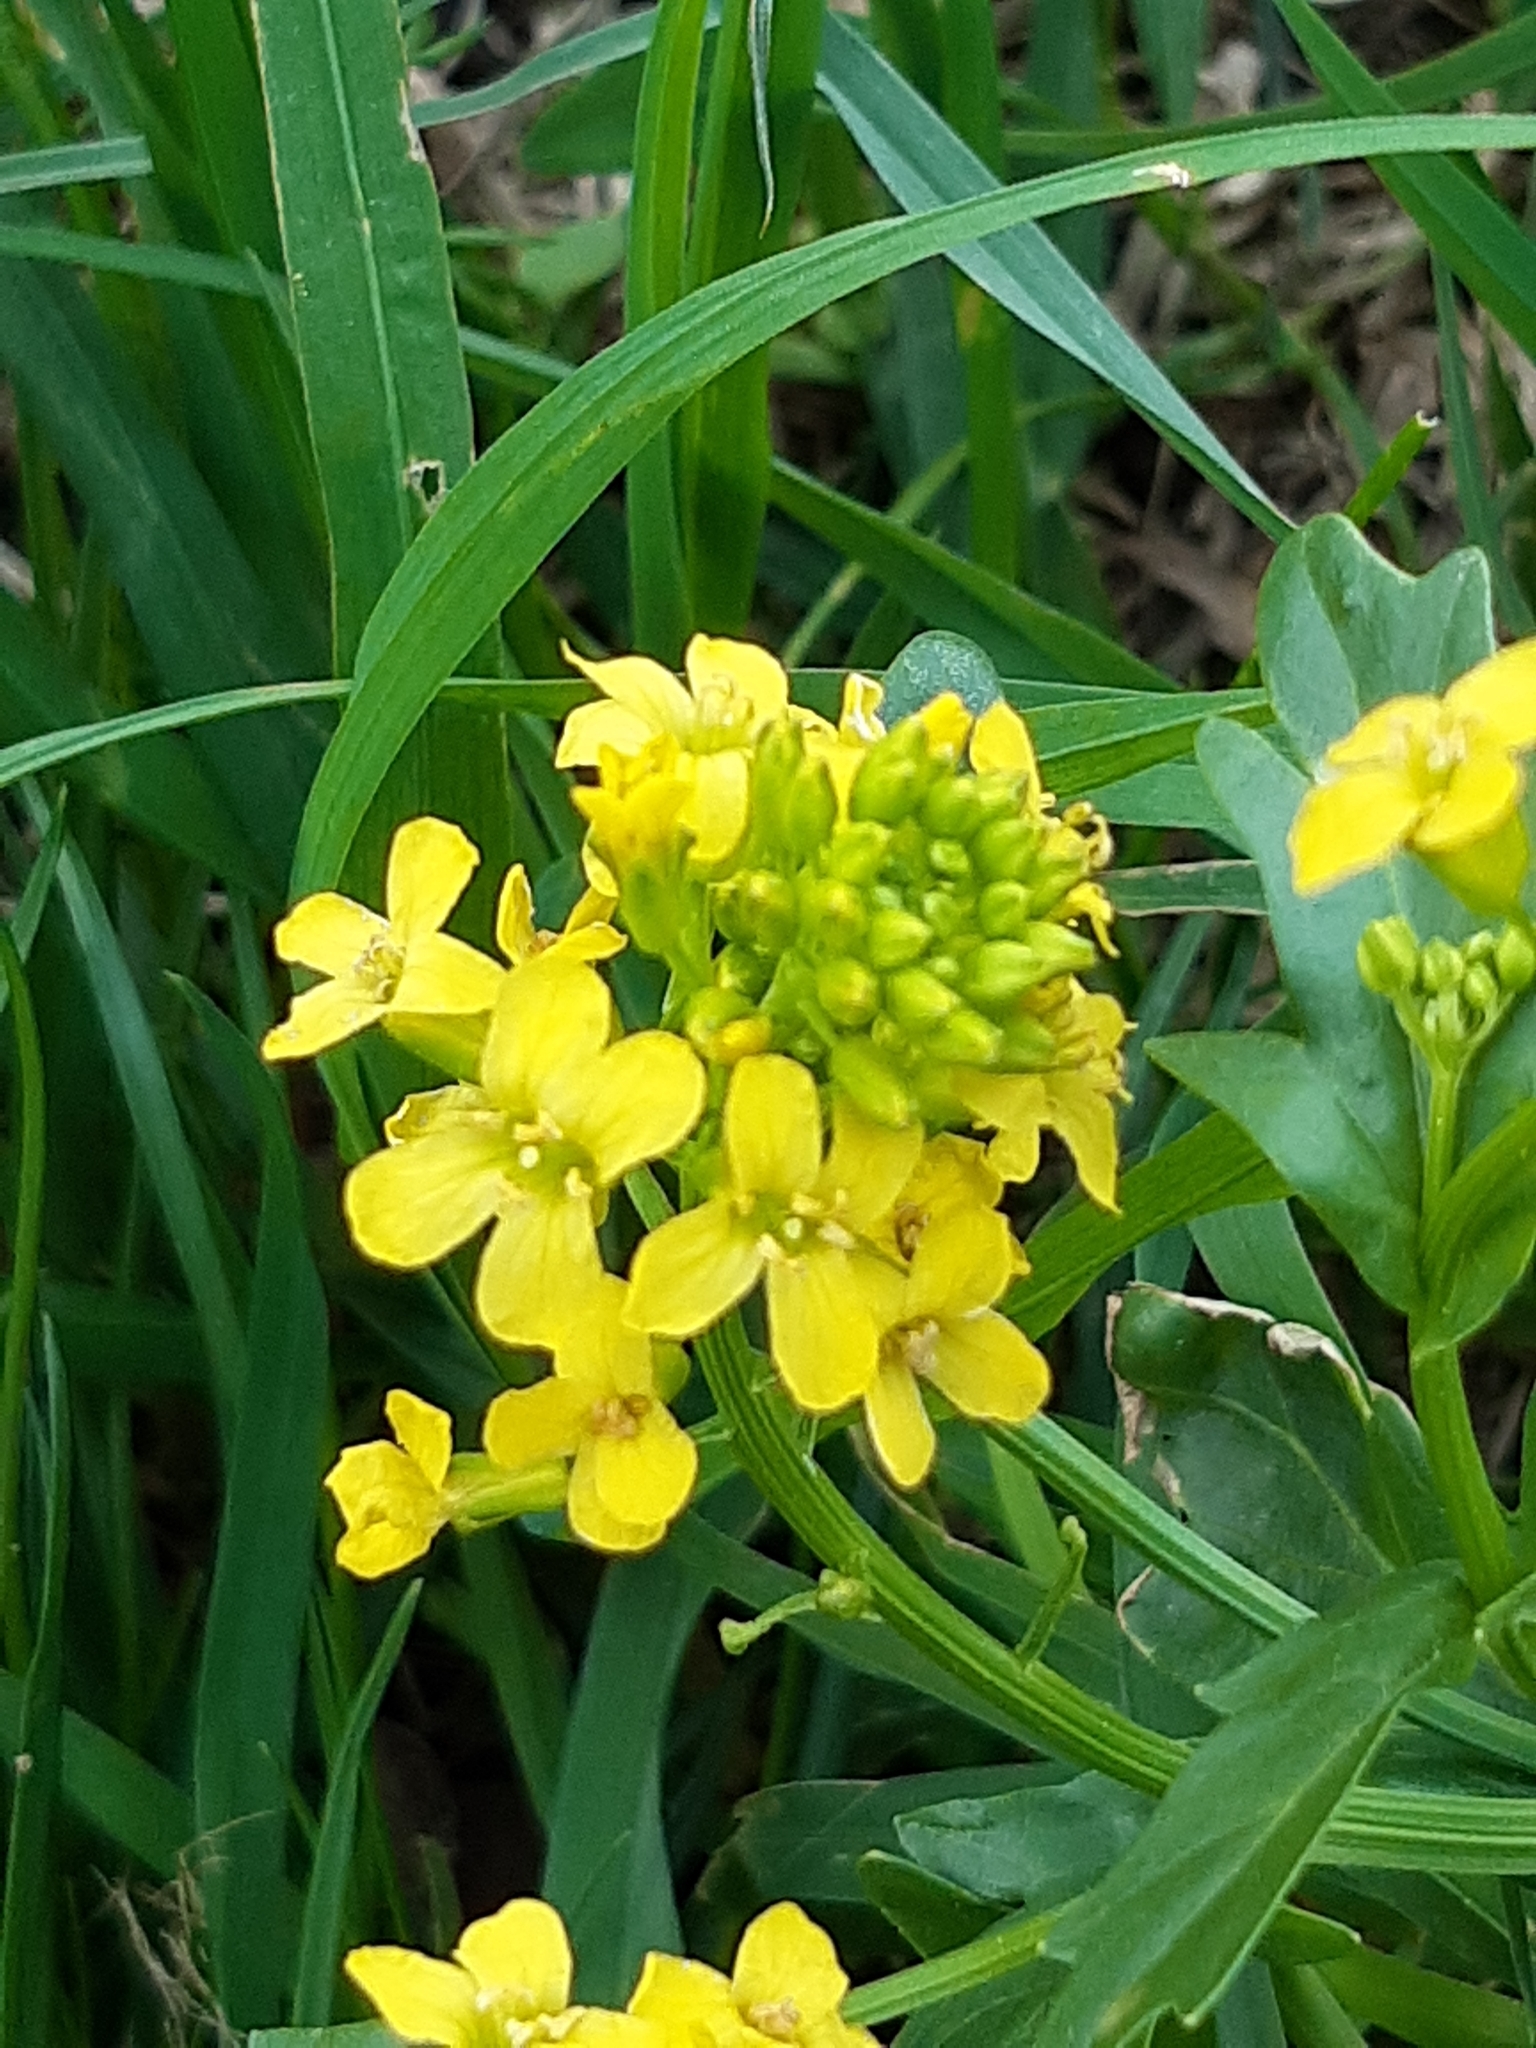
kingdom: Plantae
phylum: Tracheophyta
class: Magnoliopsida
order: Brassicales
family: Brassicaceae
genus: Barbarea
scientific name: Barbarea vulgaris
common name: Cressy-greens
